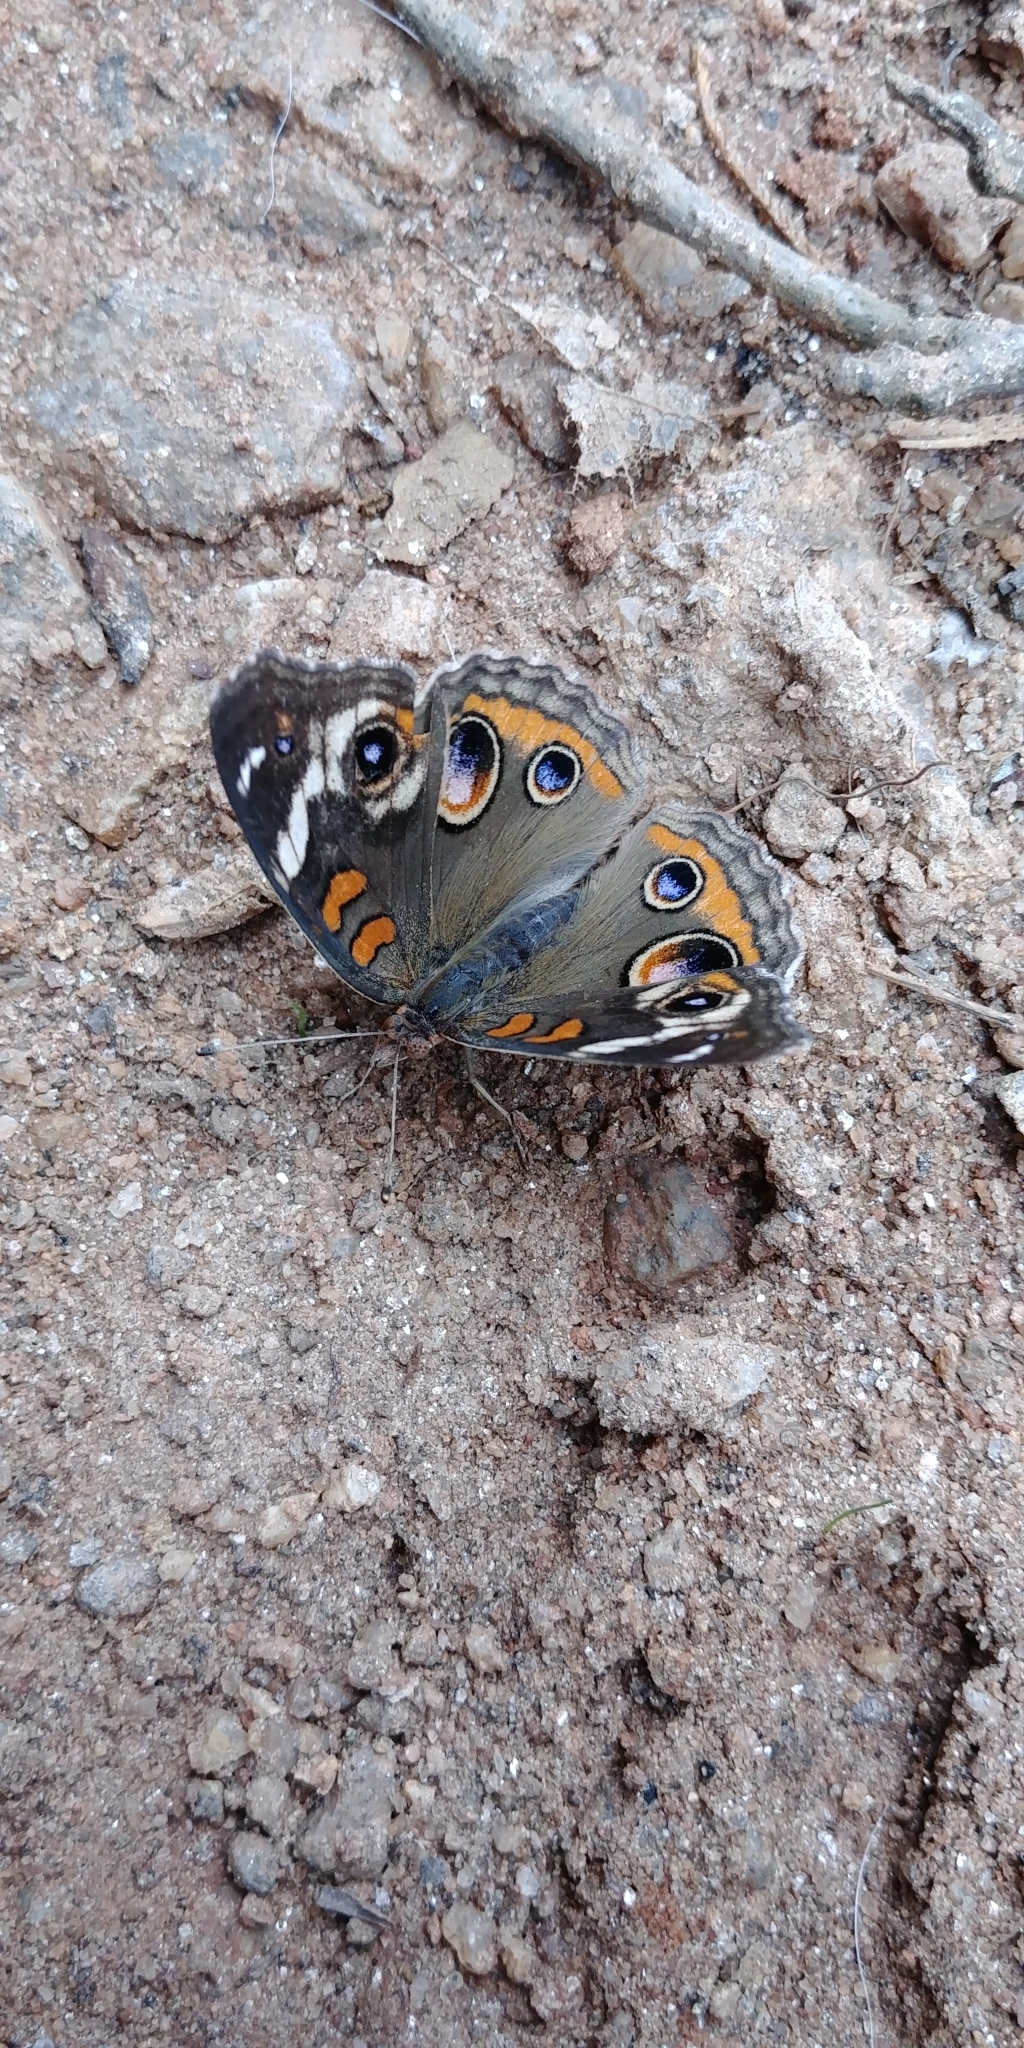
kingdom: Animalia
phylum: Arthropoda
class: Insecta
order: Lepidoptera
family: Nymphalidae
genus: Junonia
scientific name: Junonia coenia
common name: Common buckeye
